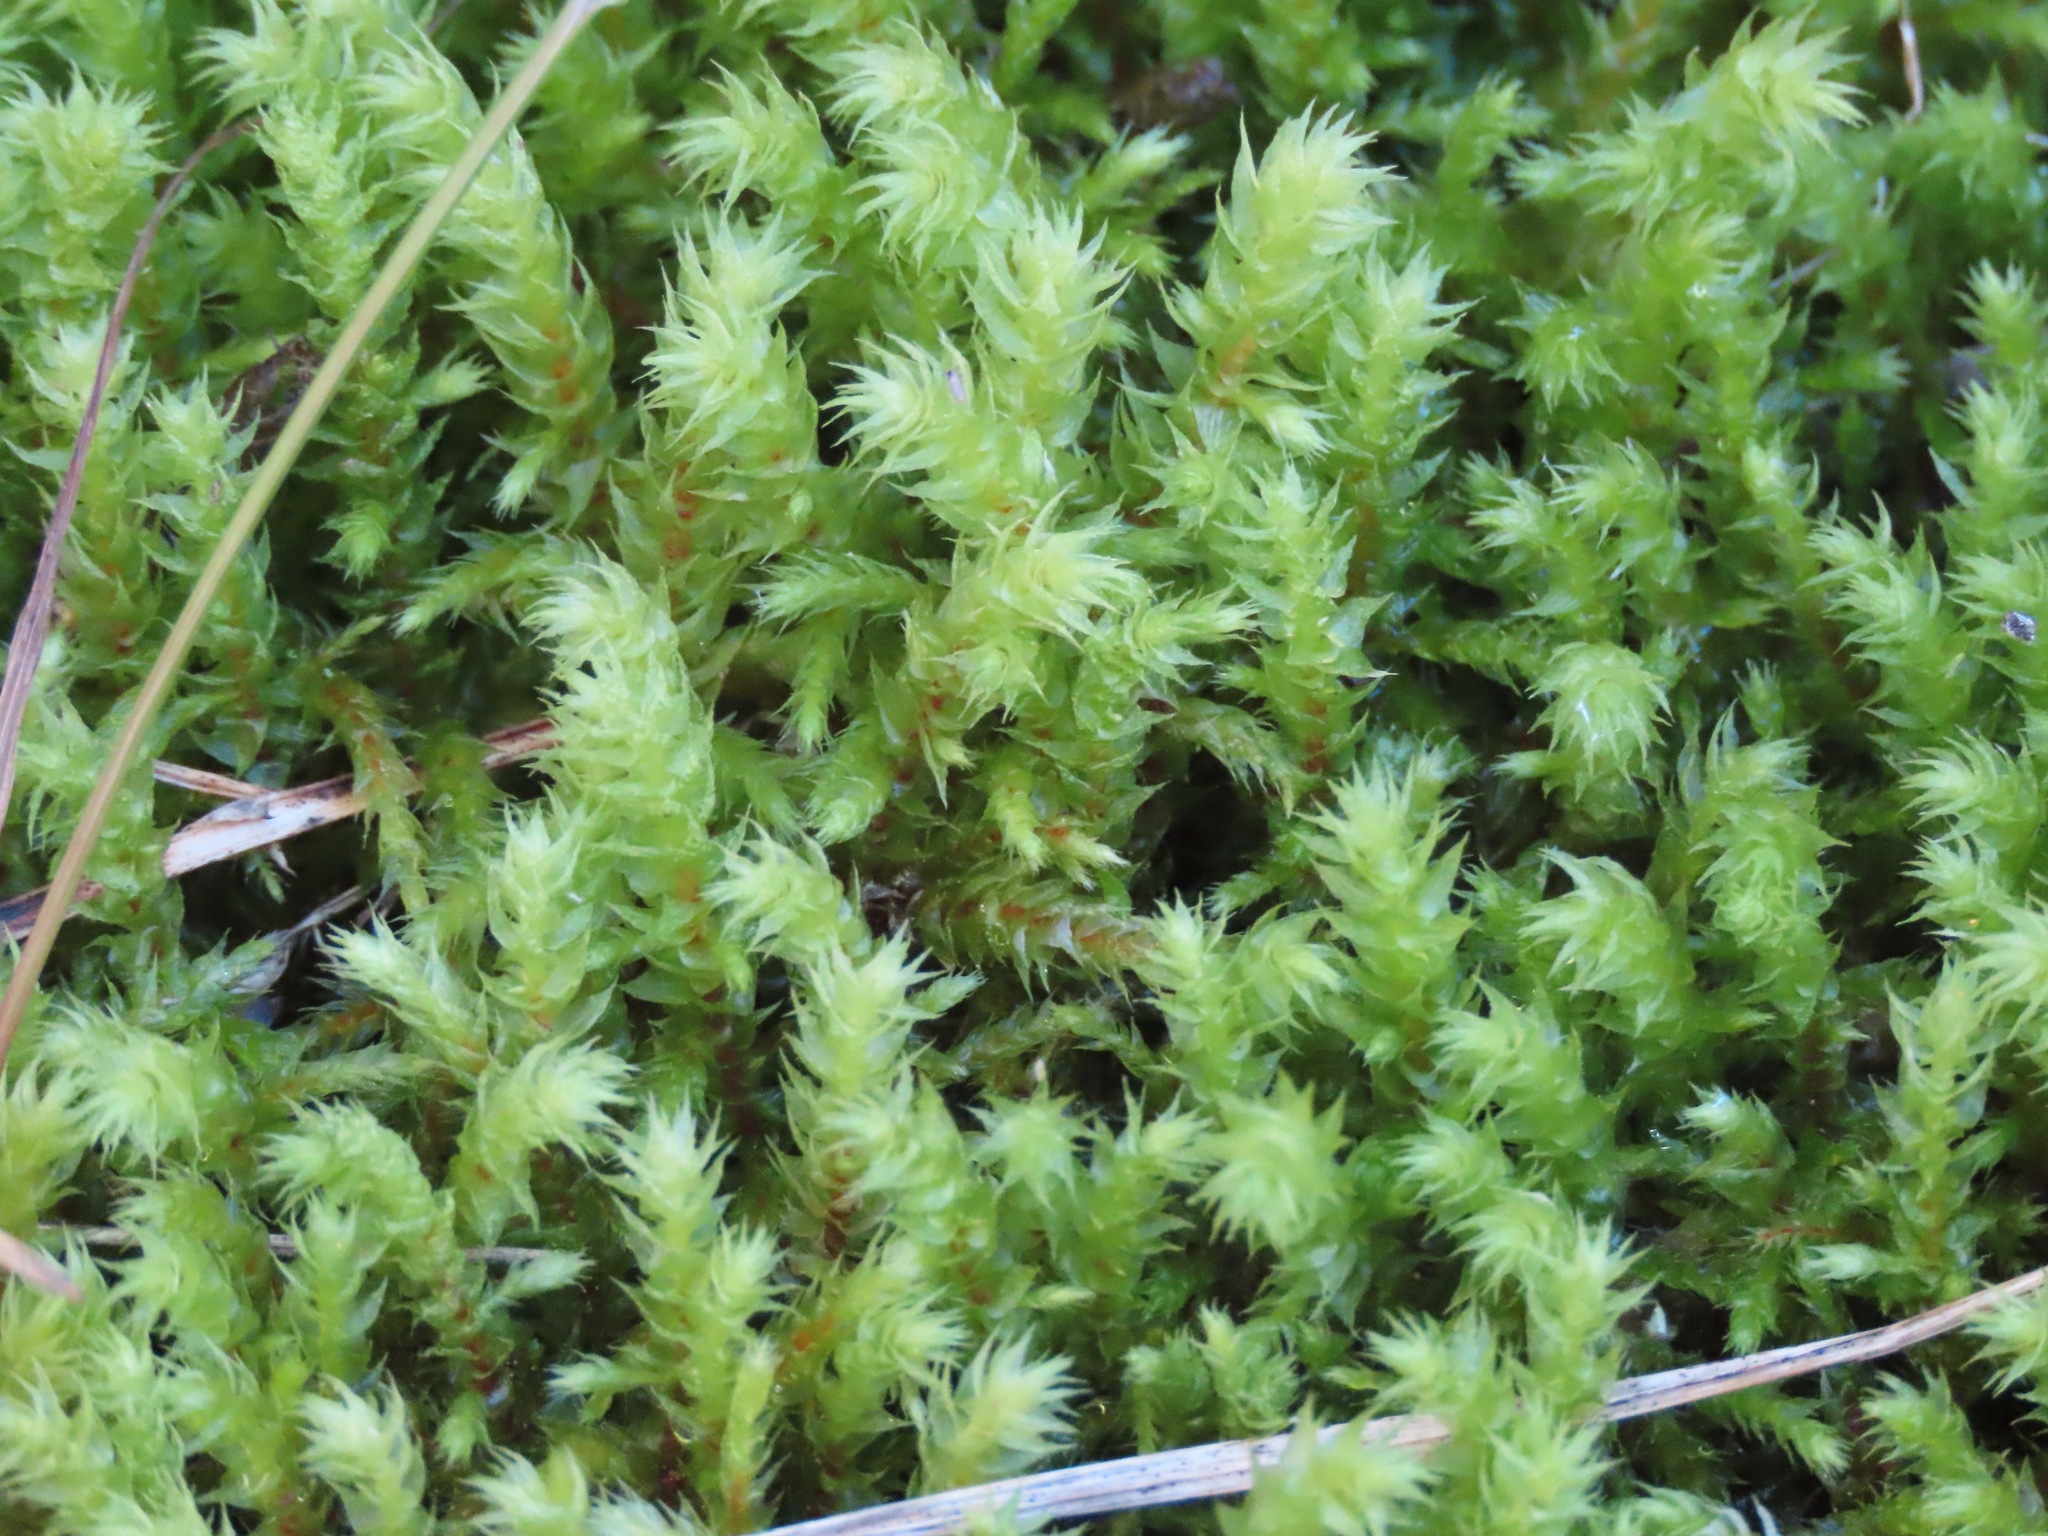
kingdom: Plantae
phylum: Bryophyta
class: Bryopsida
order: Hypnales
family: Hylocomiaceae
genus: Hylocomiadelphus
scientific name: Hylocomiadelphus triquetrus
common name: Rough goose neck moss
